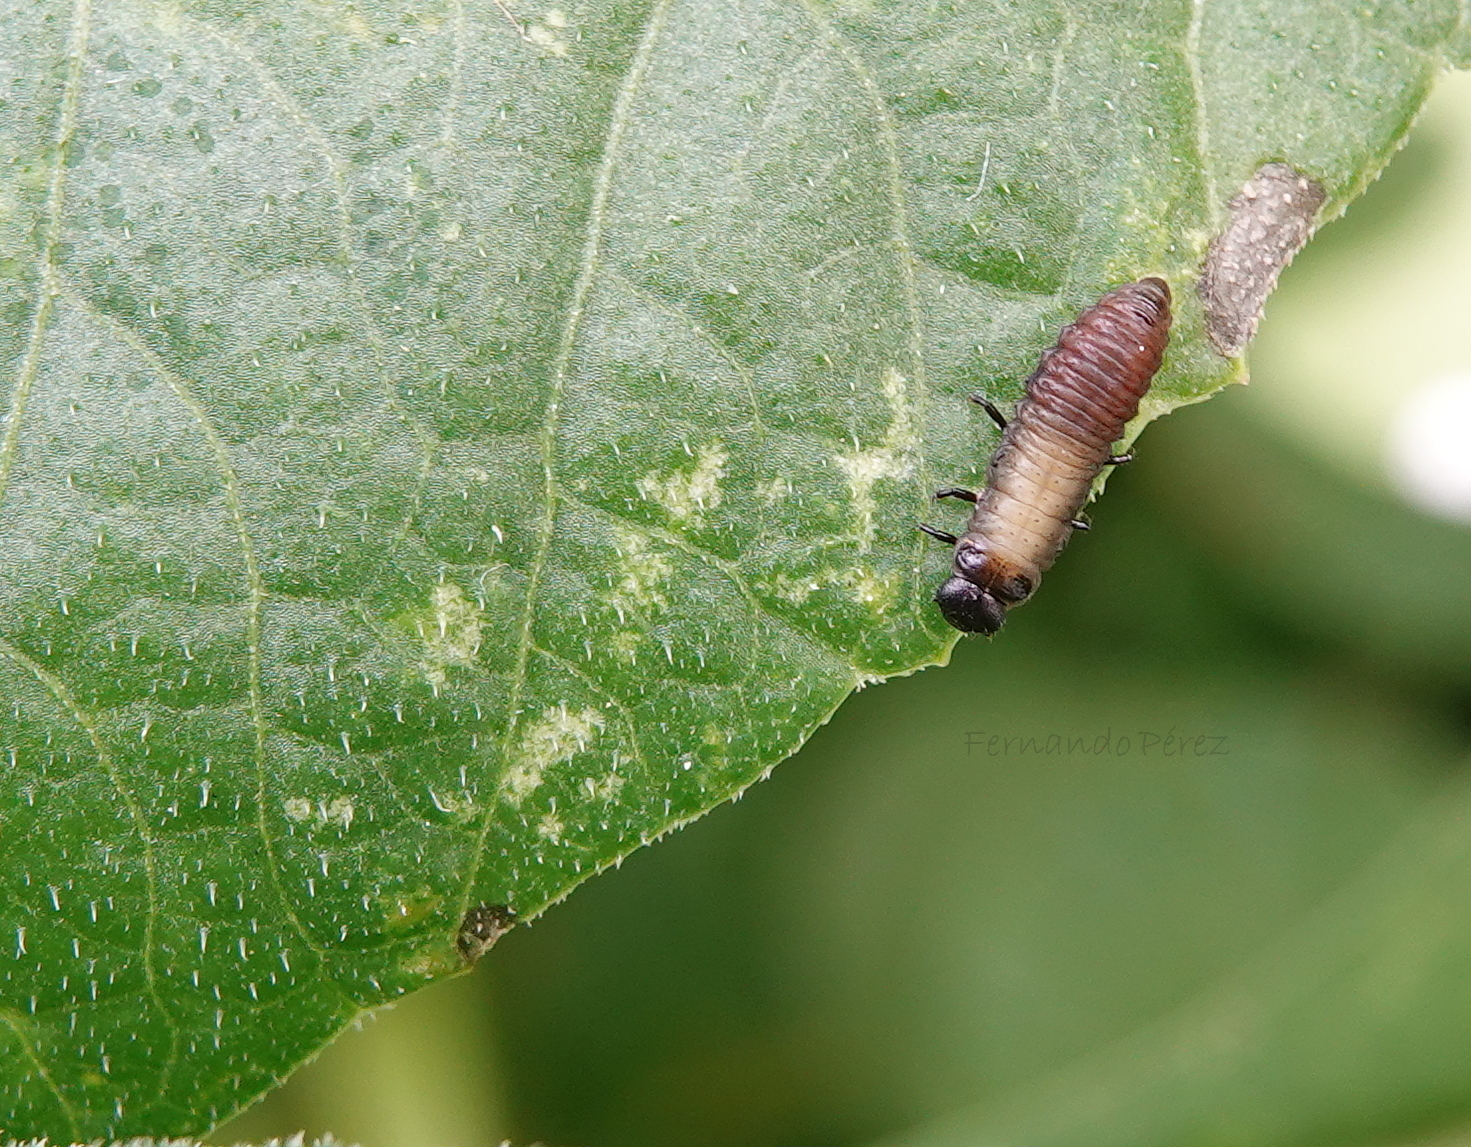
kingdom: Animalia
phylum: Arthropoda
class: Insecta
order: Coleoptera
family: Chrysomelidae
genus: Trachymela
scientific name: Trachymela sloanei
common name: Australian tortoise beetle
